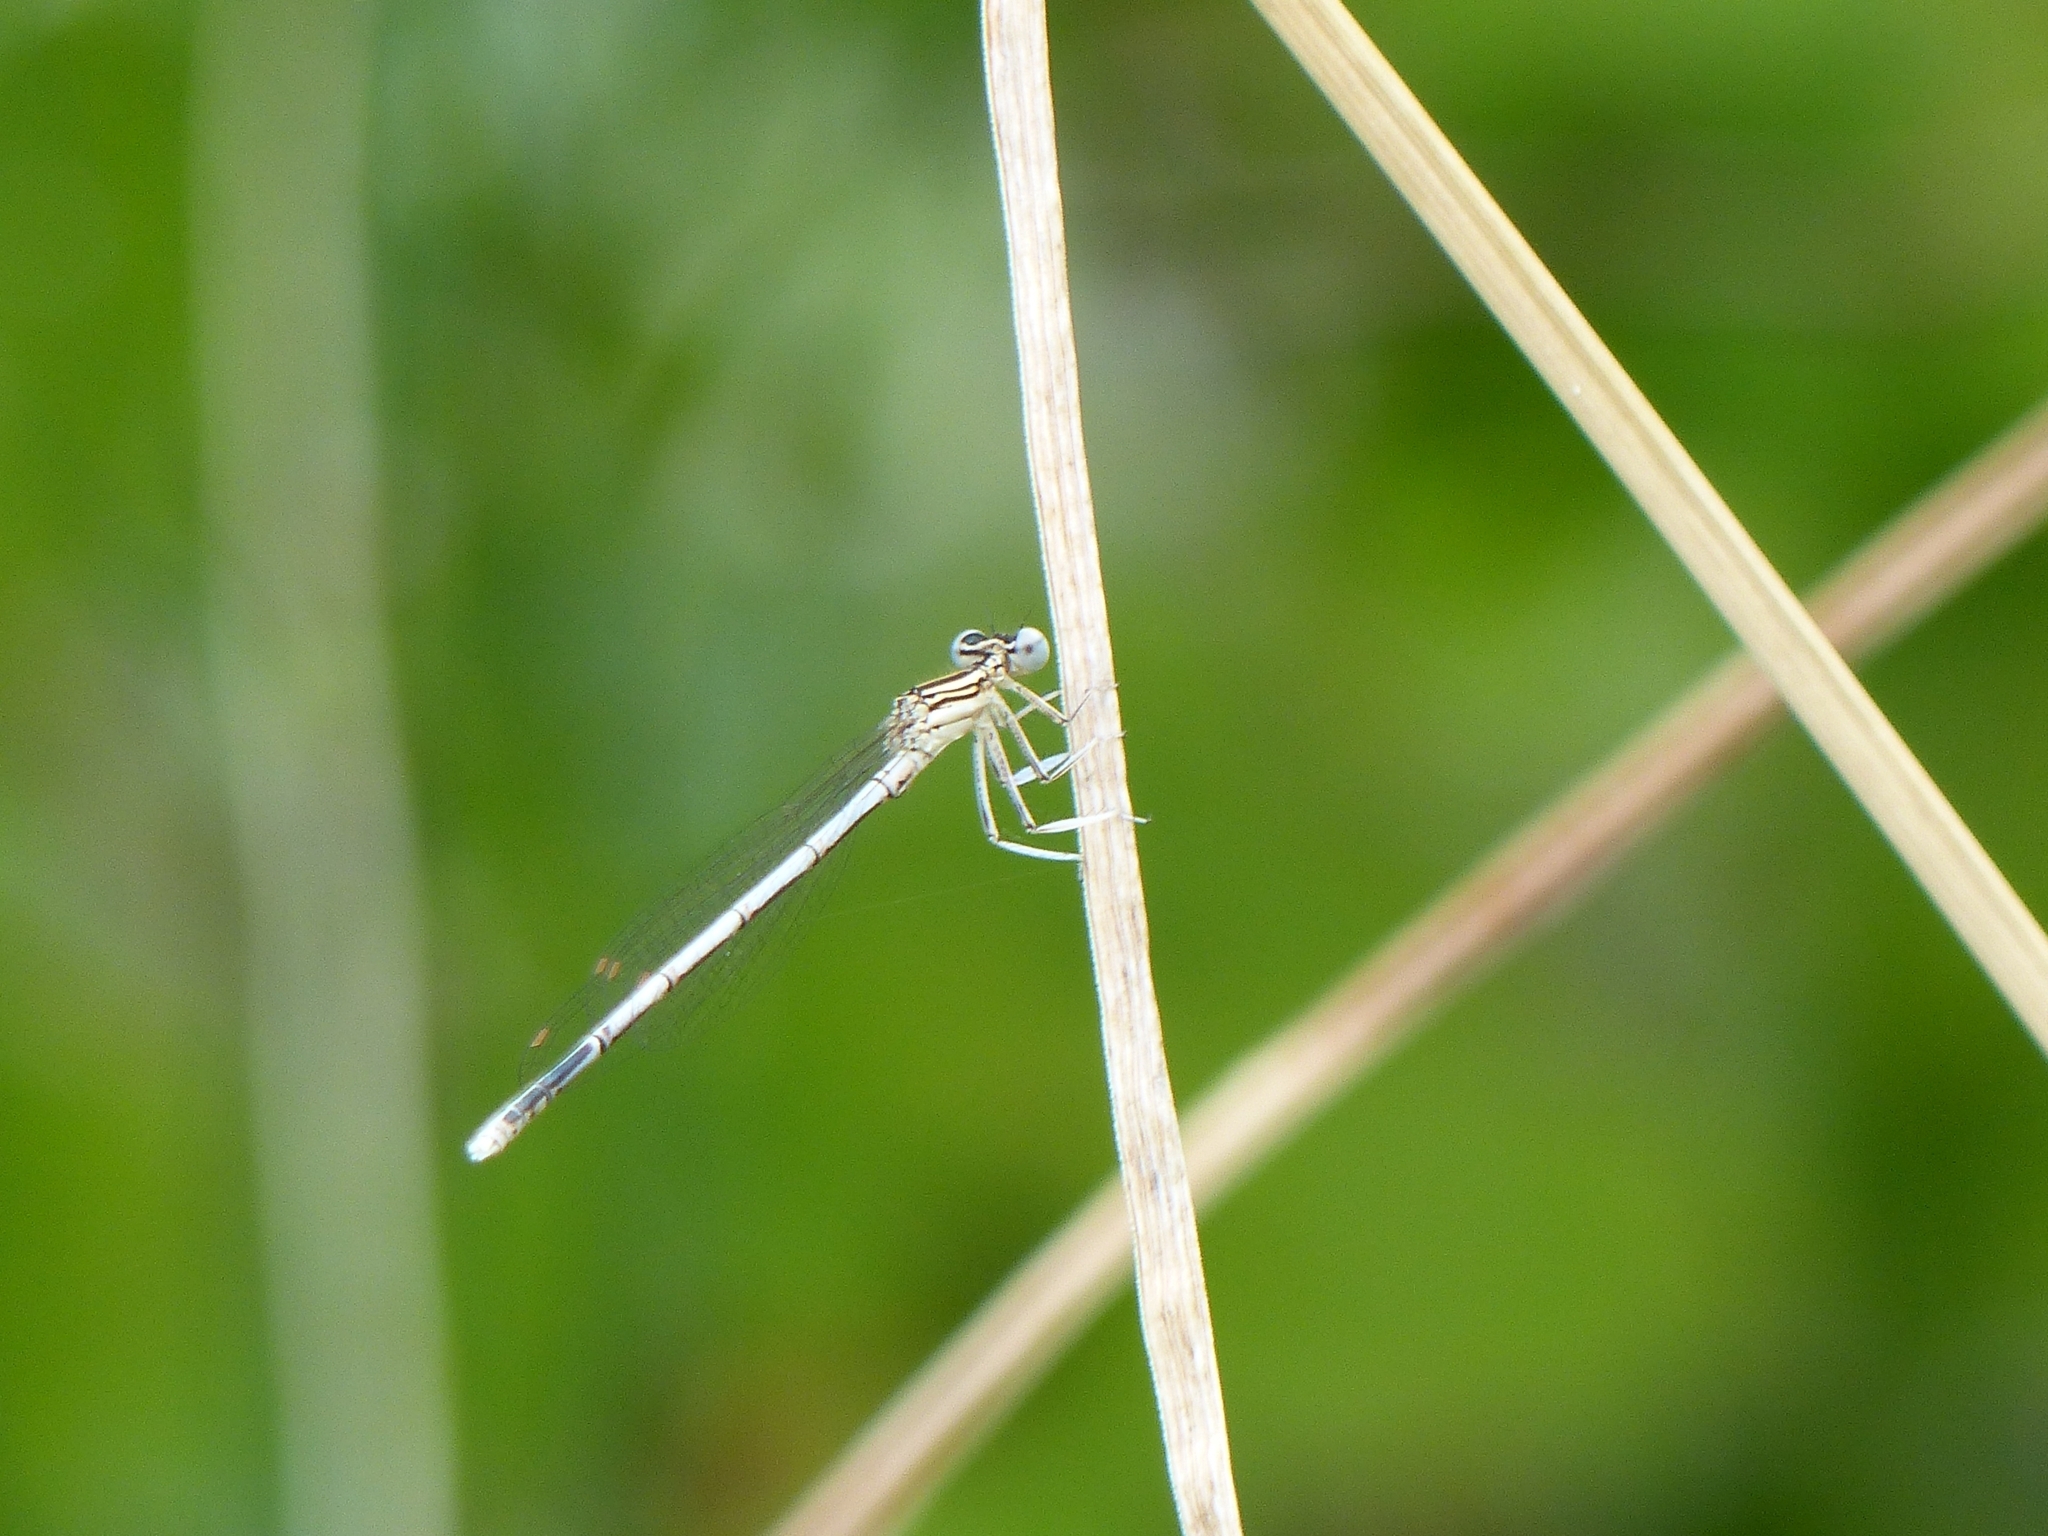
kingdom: Animalia
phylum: Arthropoda
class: Insecta
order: Odonata
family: Platycnemididae
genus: Platycnemis
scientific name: Platycnemis pennipes
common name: White-legged damselfly
